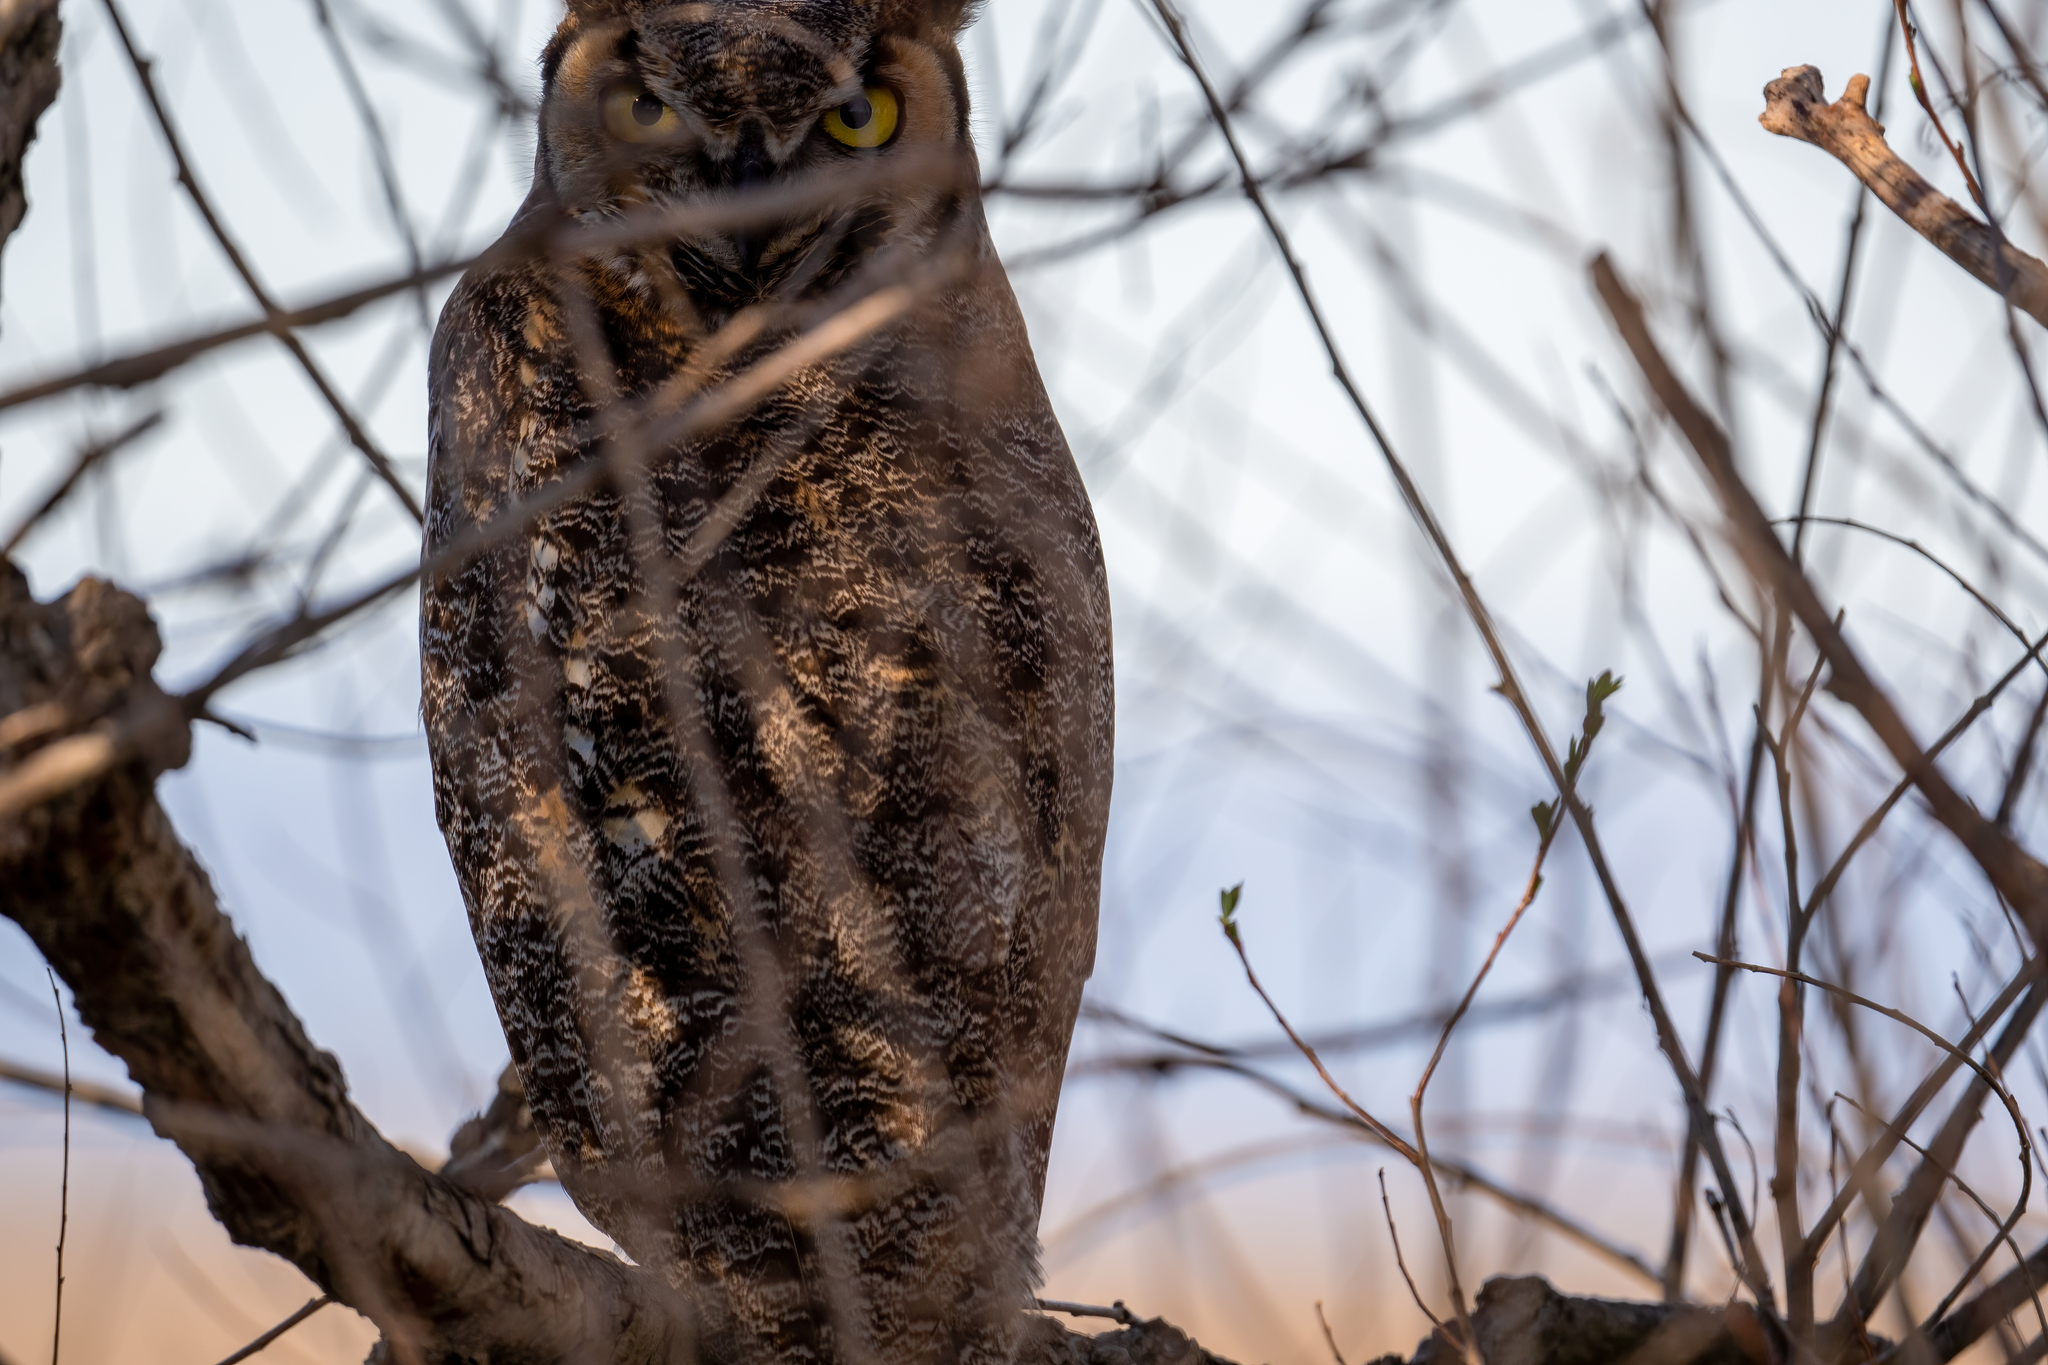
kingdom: Animalia
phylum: Chordata
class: Aves
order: Strigiformes
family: Strigidae
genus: Bubo
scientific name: Bubo virginianus
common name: Great horned owl
